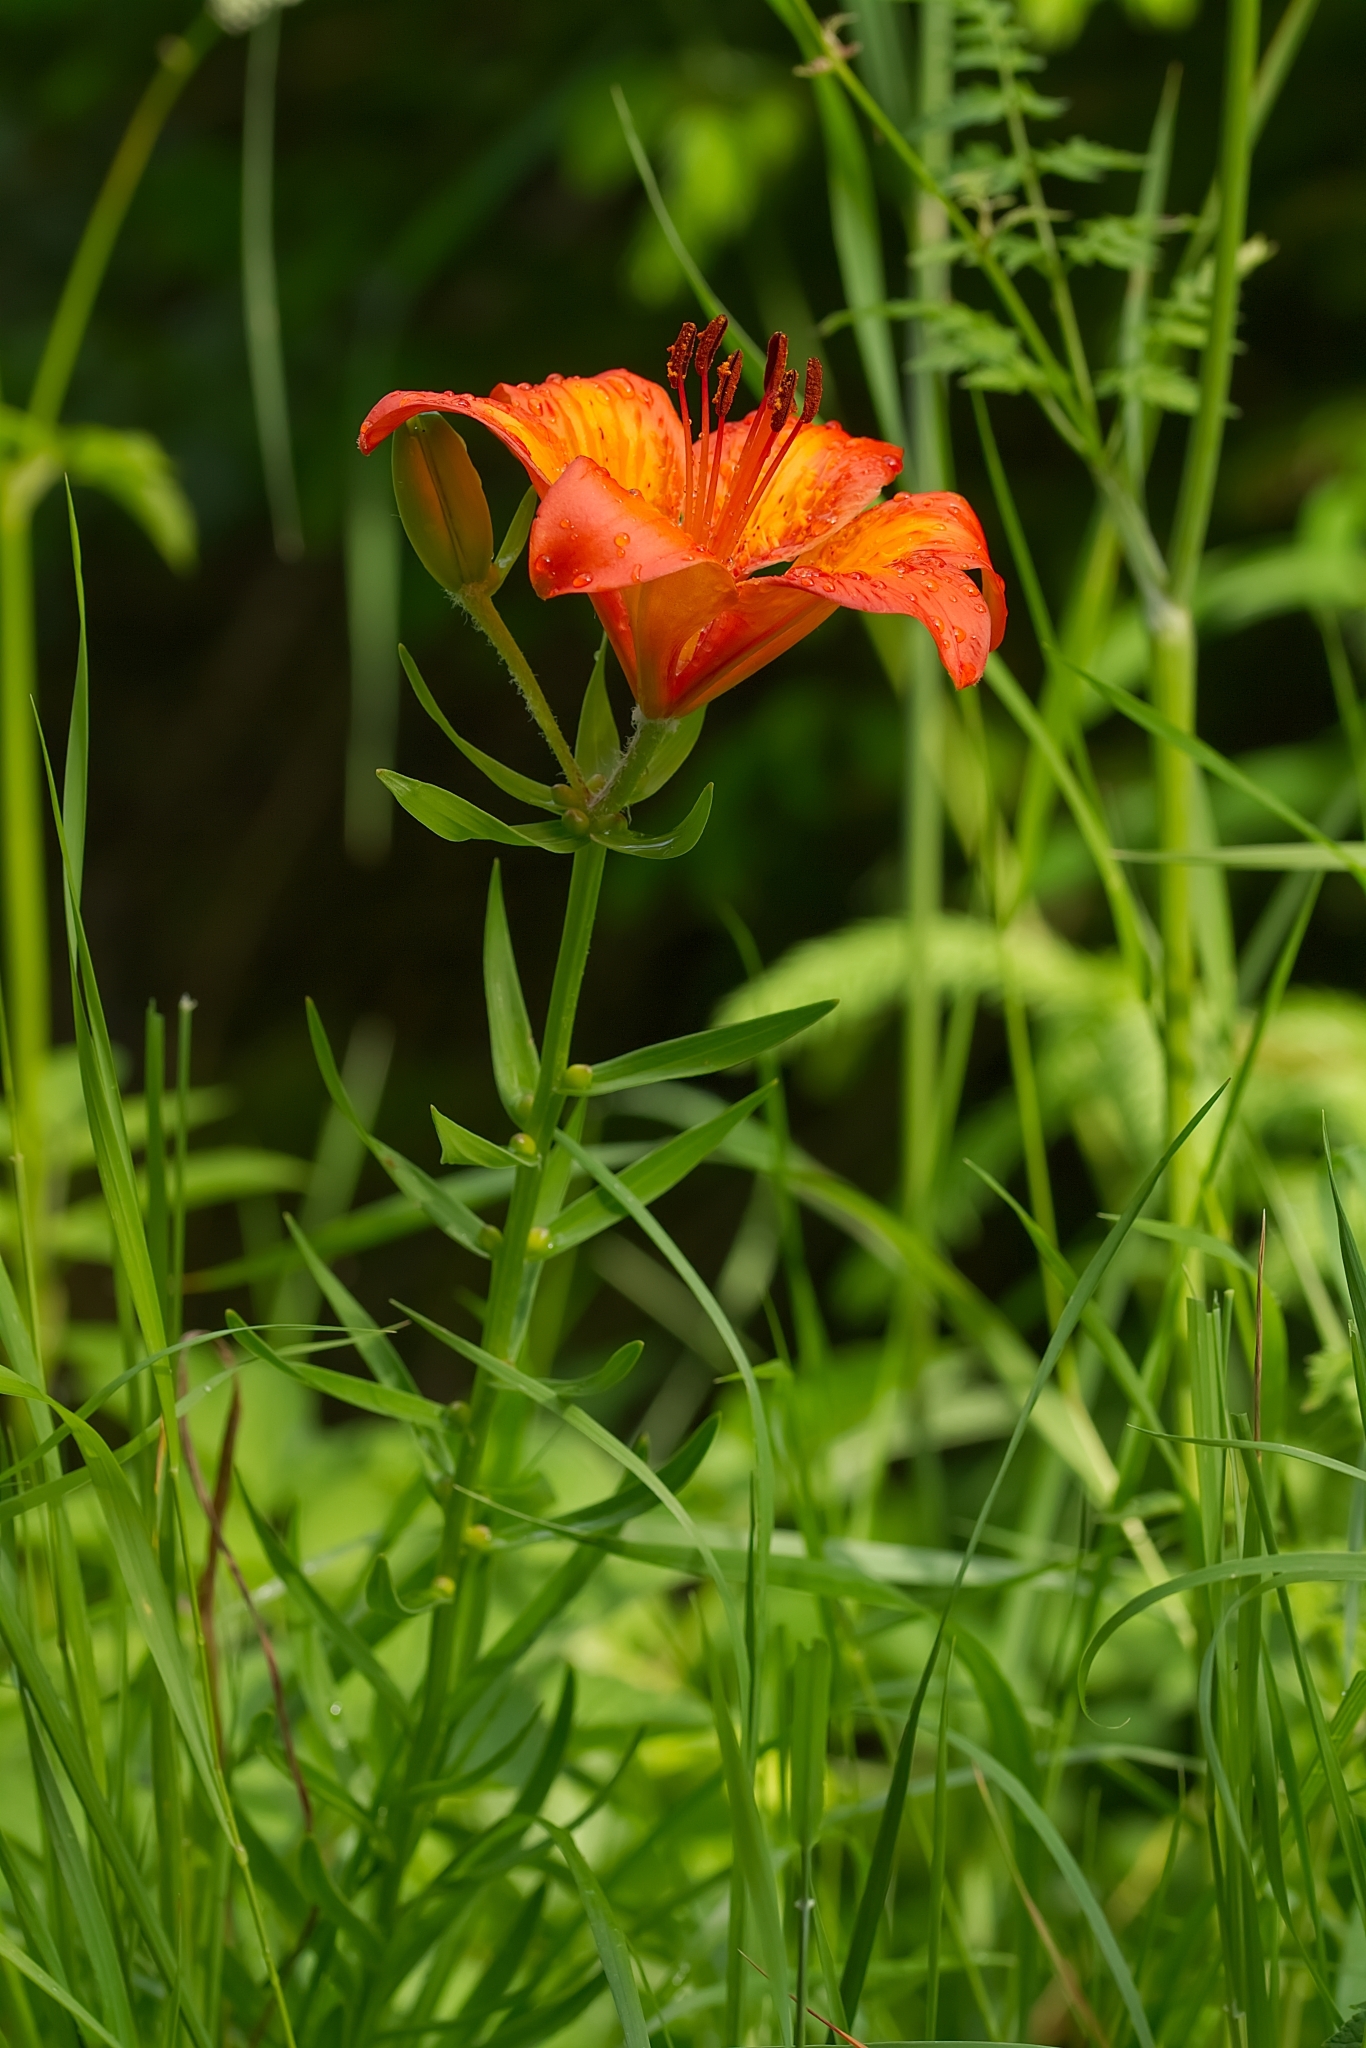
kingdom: Plantae
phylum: Tracheophyta
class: Liliopsida
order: Liliales
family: Liliaceae
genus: Lilium
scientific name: Lilium bulbiferum
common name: Orange lily
